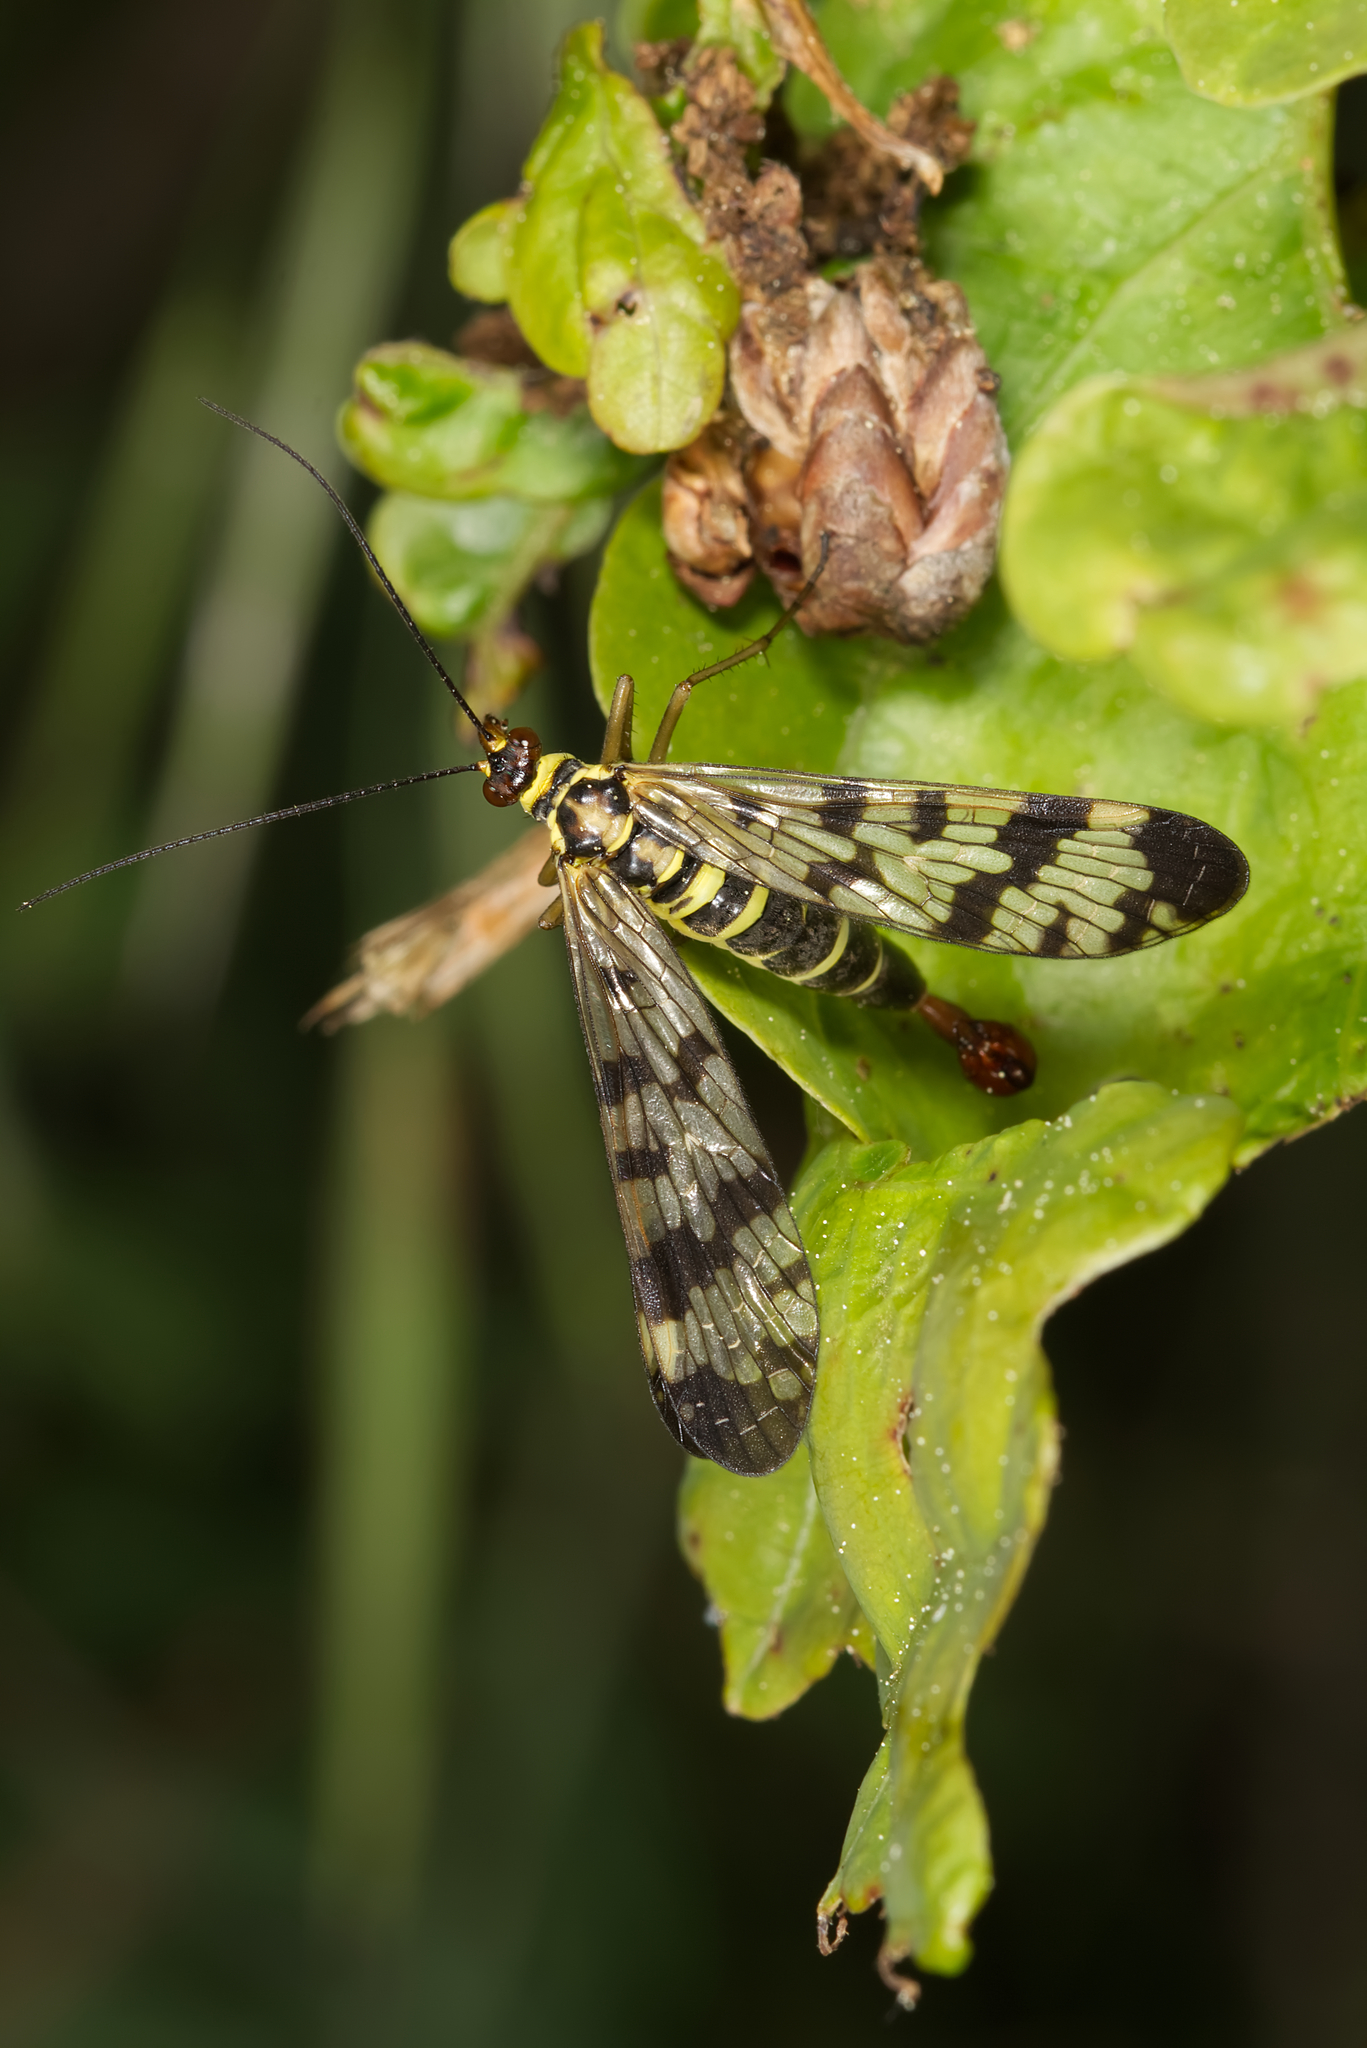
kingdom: Animalia
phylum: Arthropoda
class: Insecta
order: Mecoptera
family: Panorpidae
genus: Panorpa
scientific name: Panorpa communis
